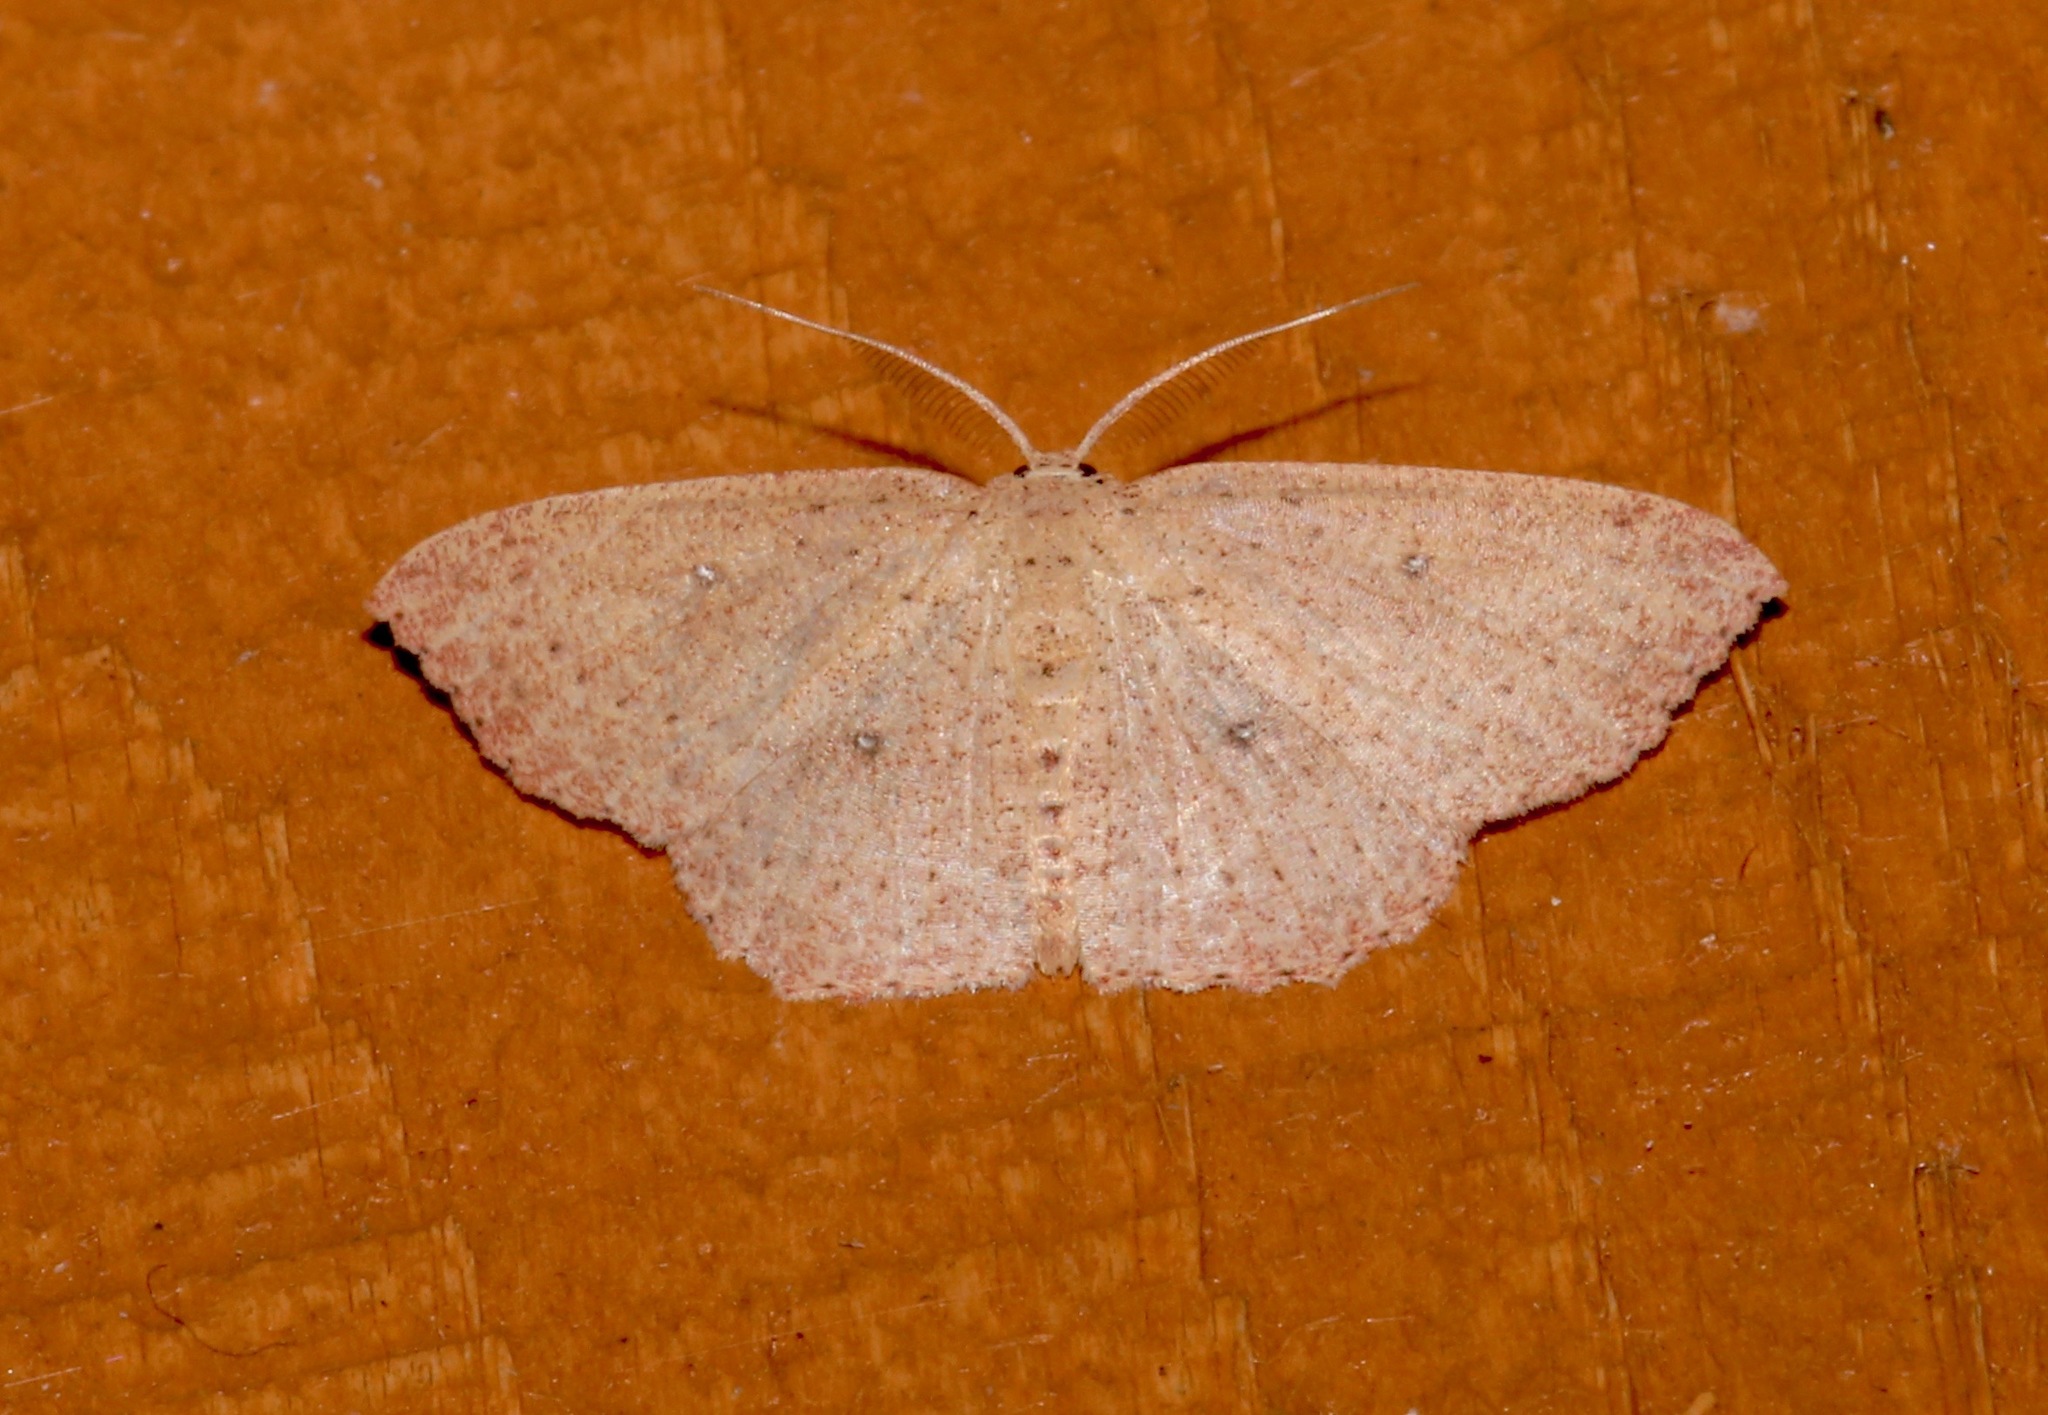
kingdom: Animalia
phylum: Arthropoda
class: Insecta
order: Lepidoptera
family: Geometridae
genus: Cyclophora
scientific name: Cyclophora myrtaria
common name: Waxmyrtle wave moth
